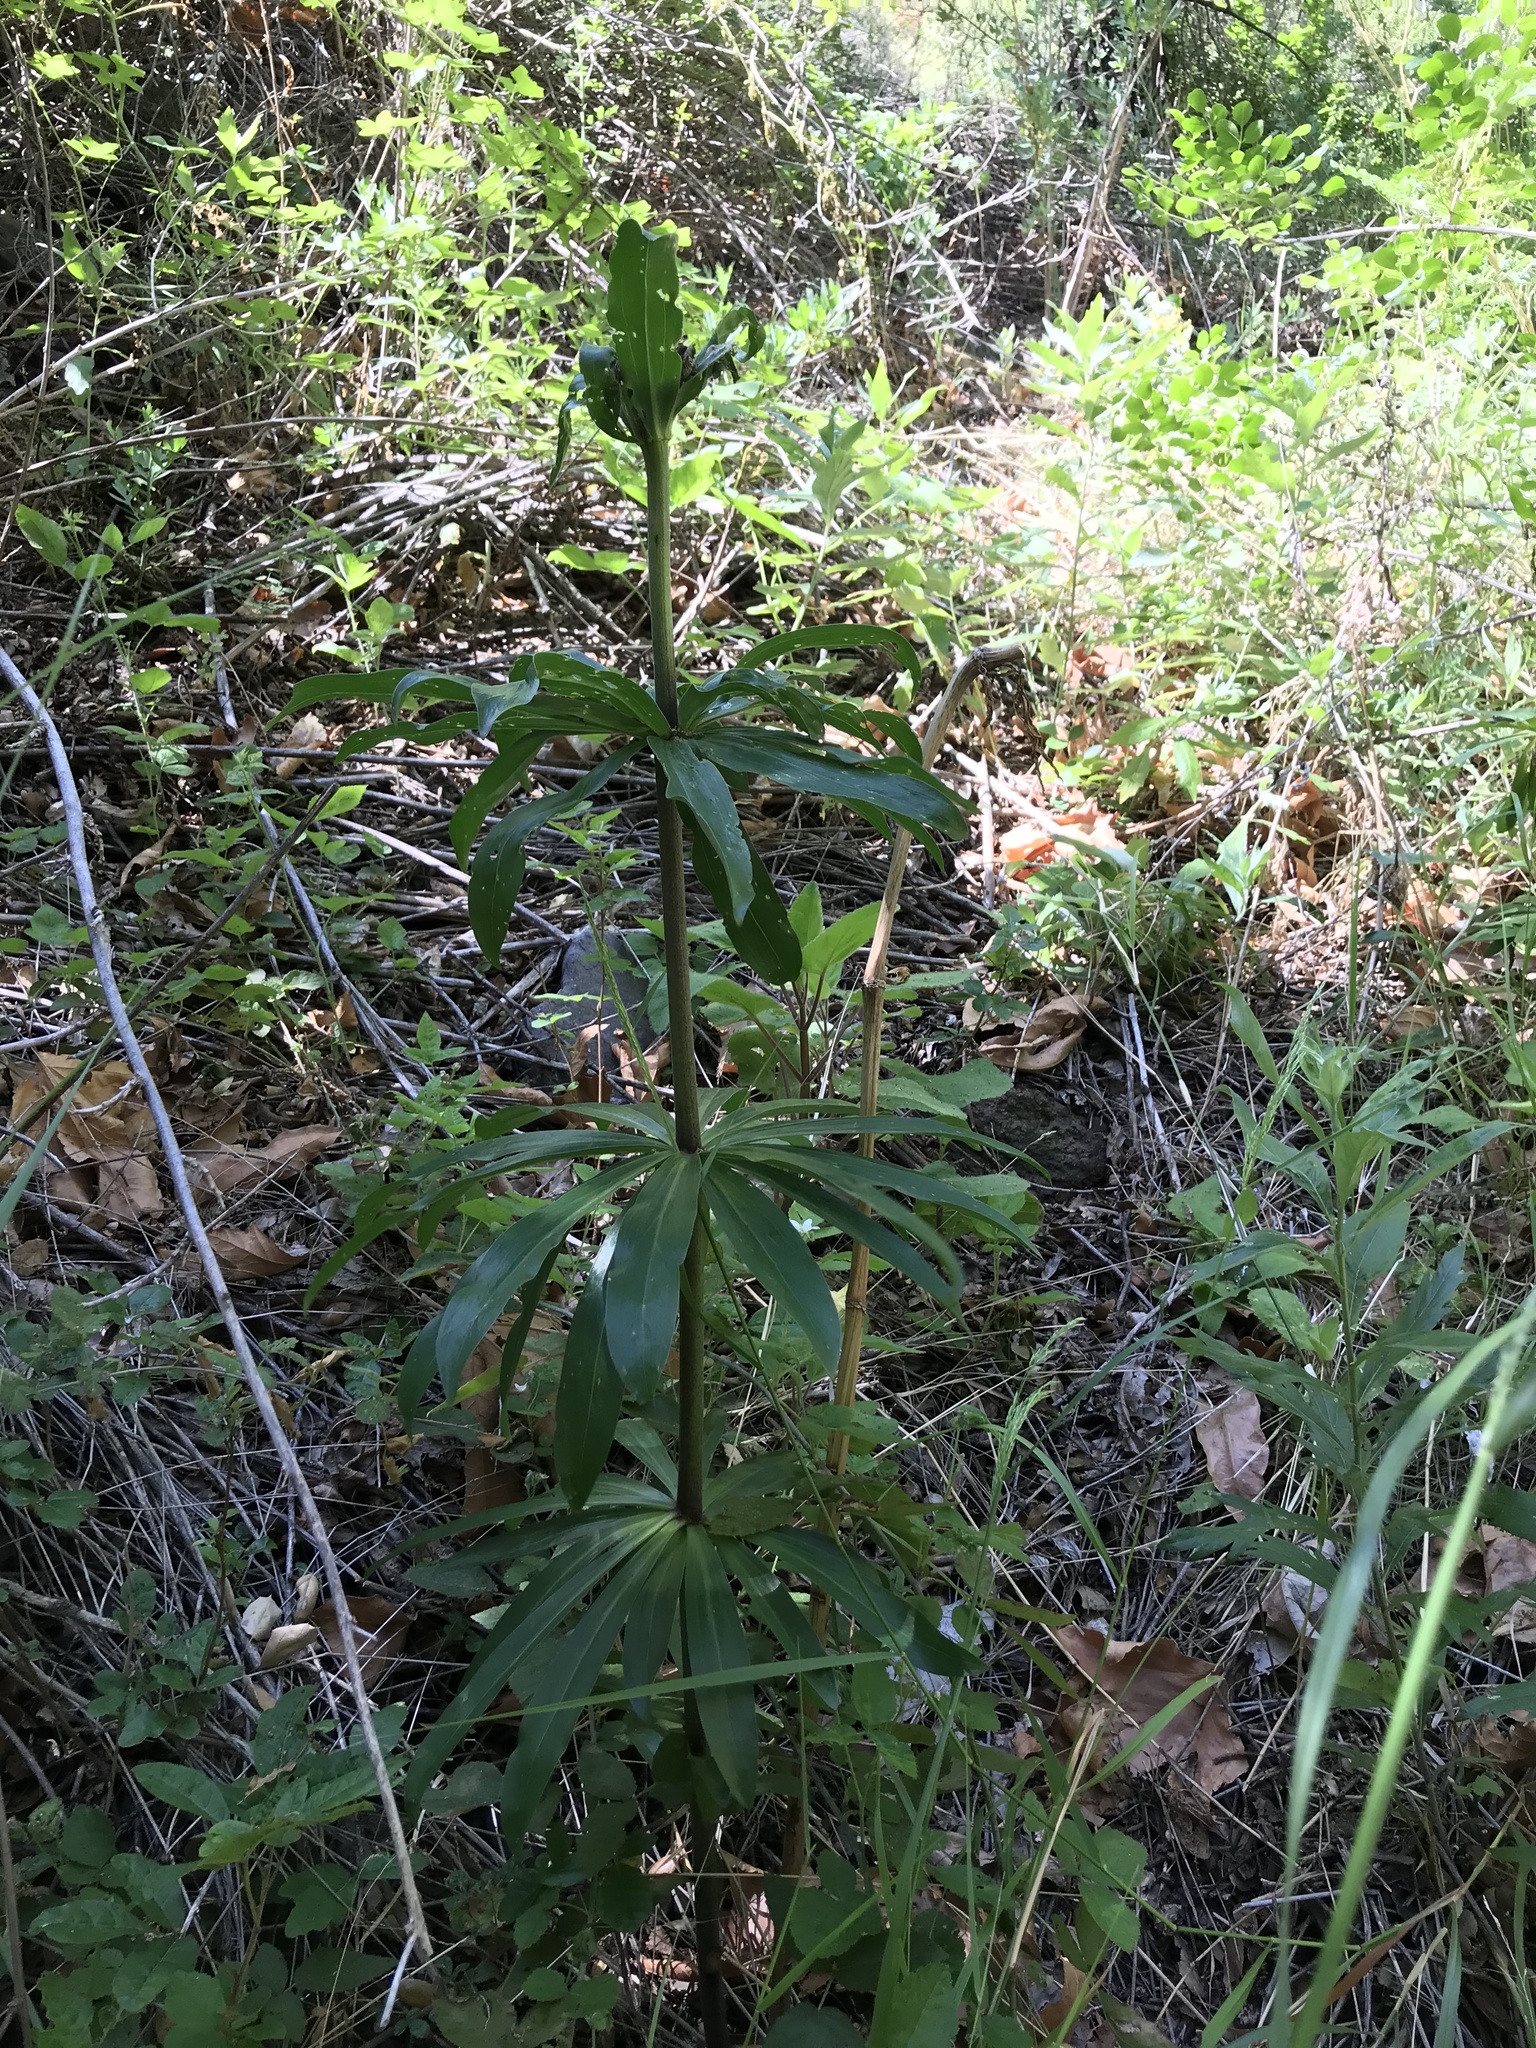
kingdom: Plantae
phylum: Tracheophyta
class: Liliopsida
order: Liliales
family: Liliaceae
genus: Lilium
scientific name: Lilium humboldtii
